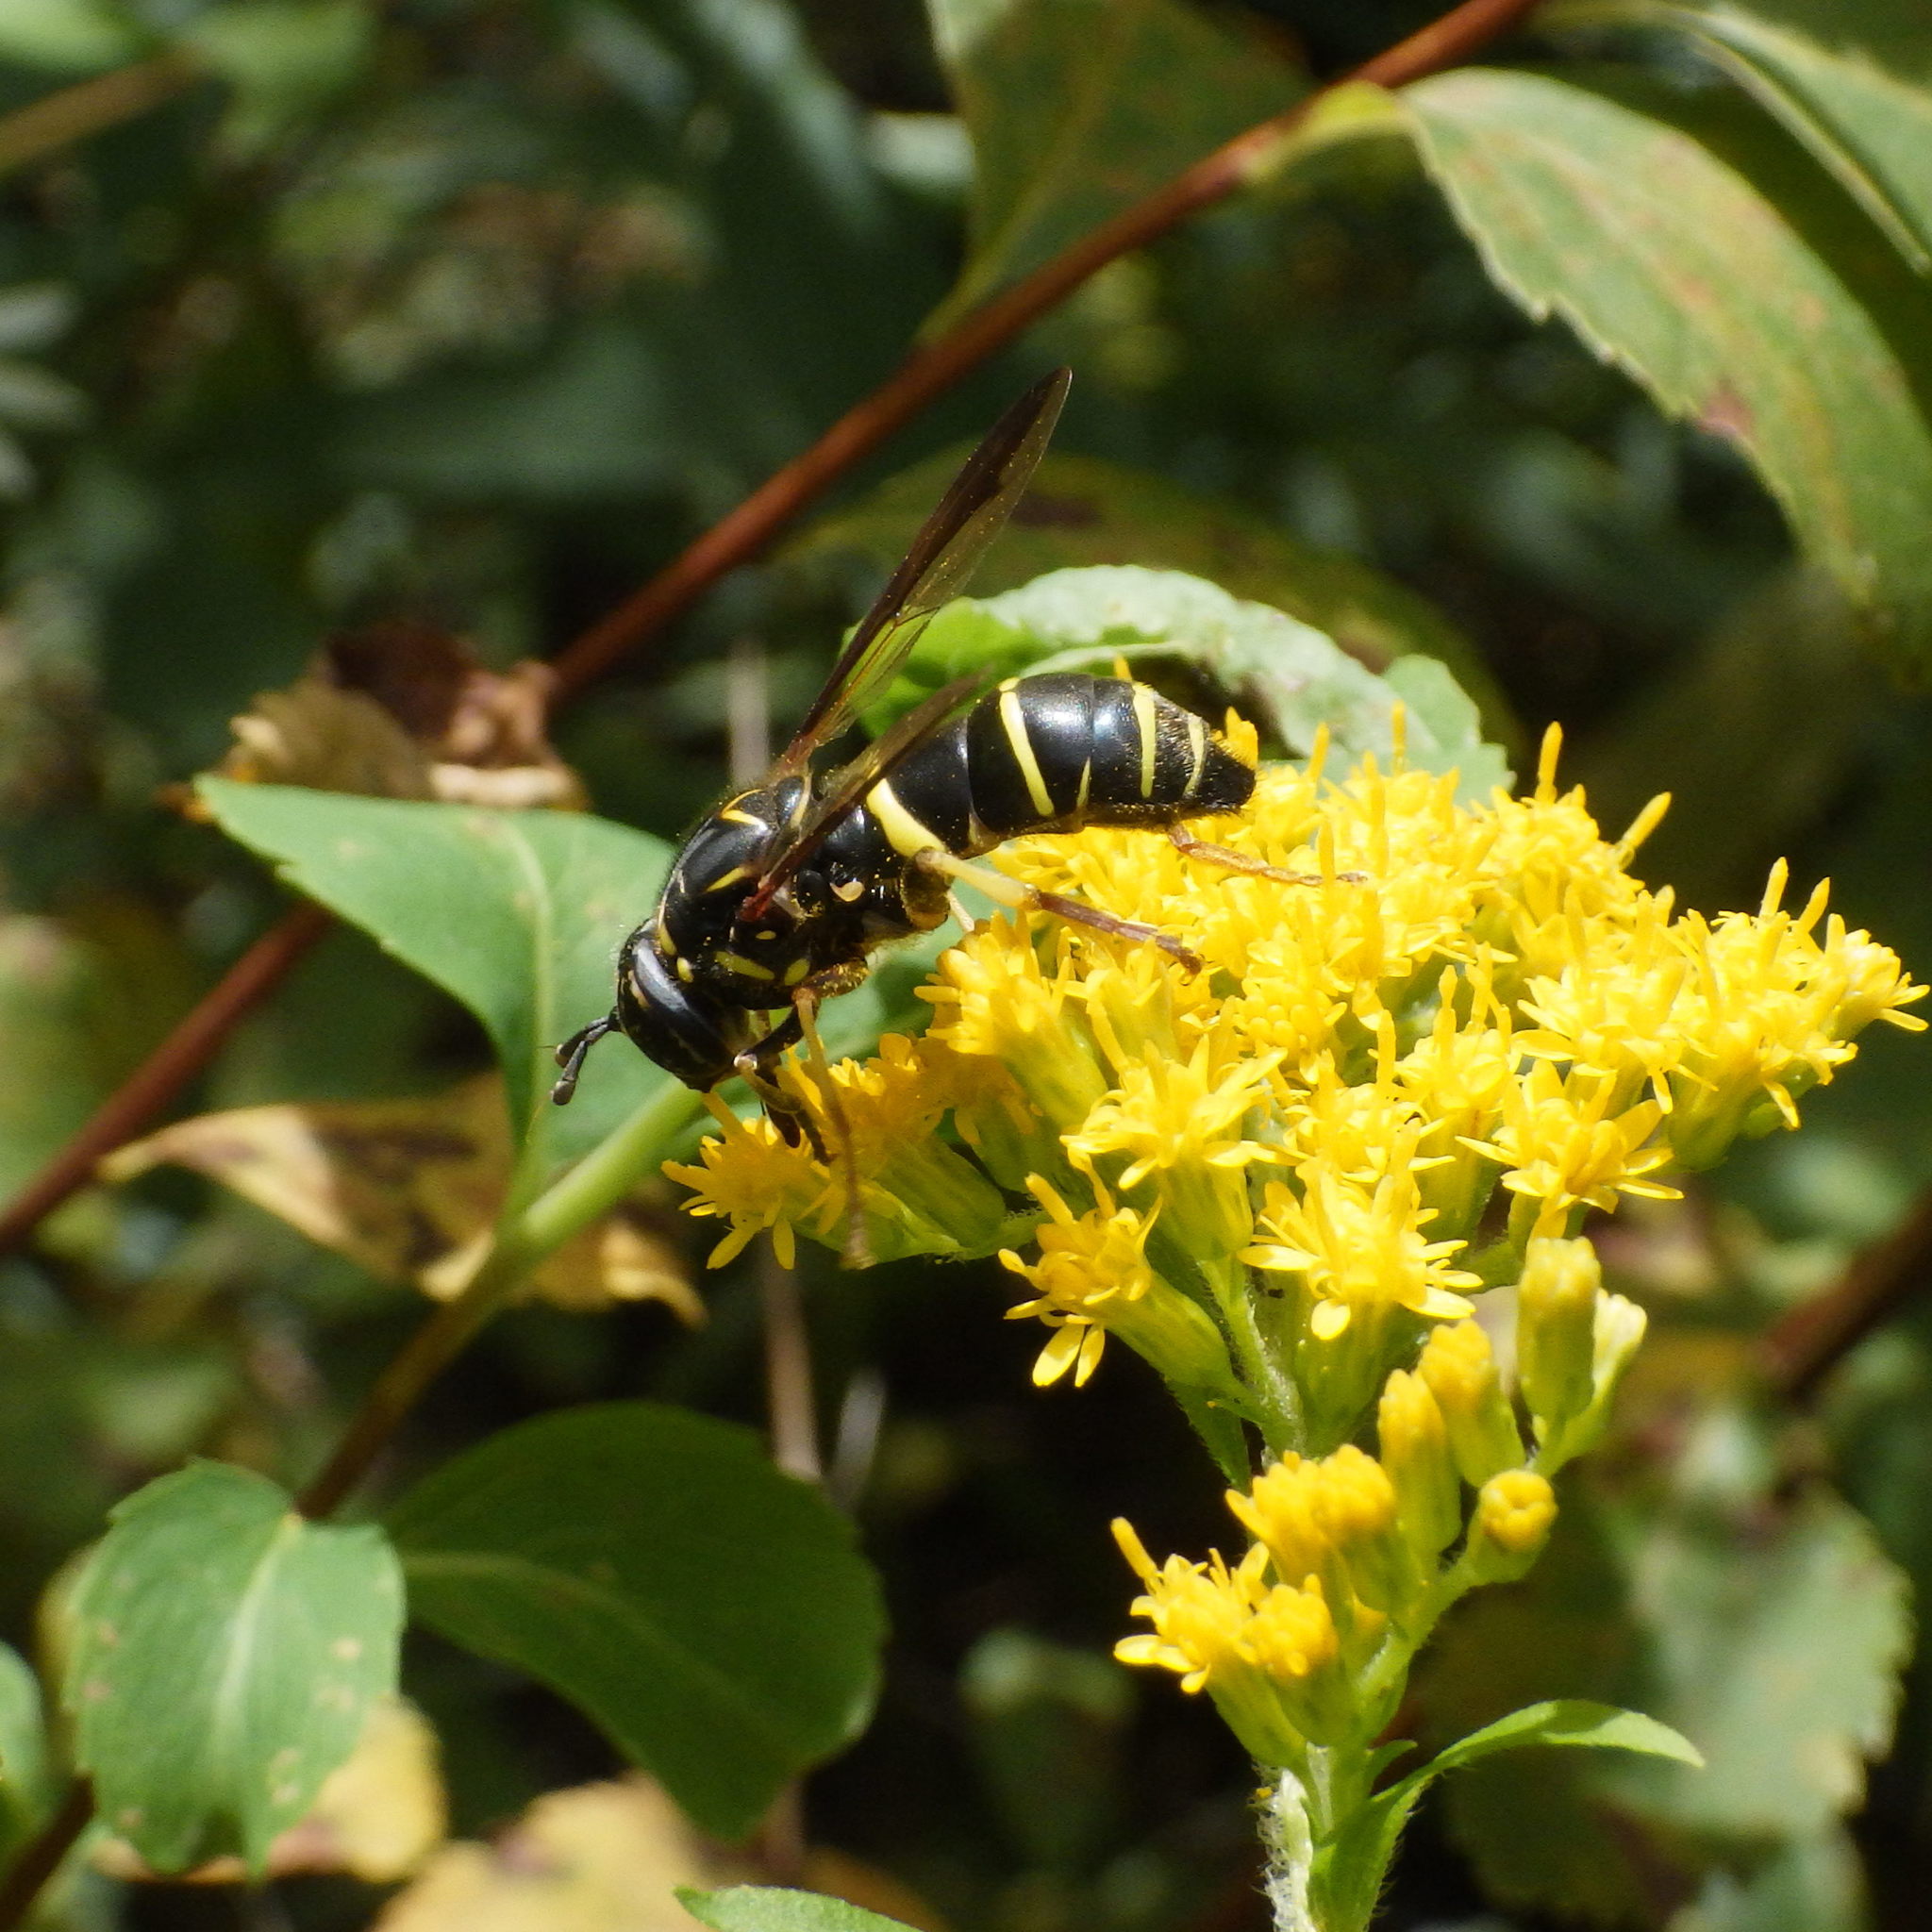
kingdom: Animalia
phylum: Arthropoda
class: Insecta
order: Diptera
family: Syrphidae
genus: Spilomyia
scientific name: Spilomyia sayi
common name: Four-lined hornet fly
